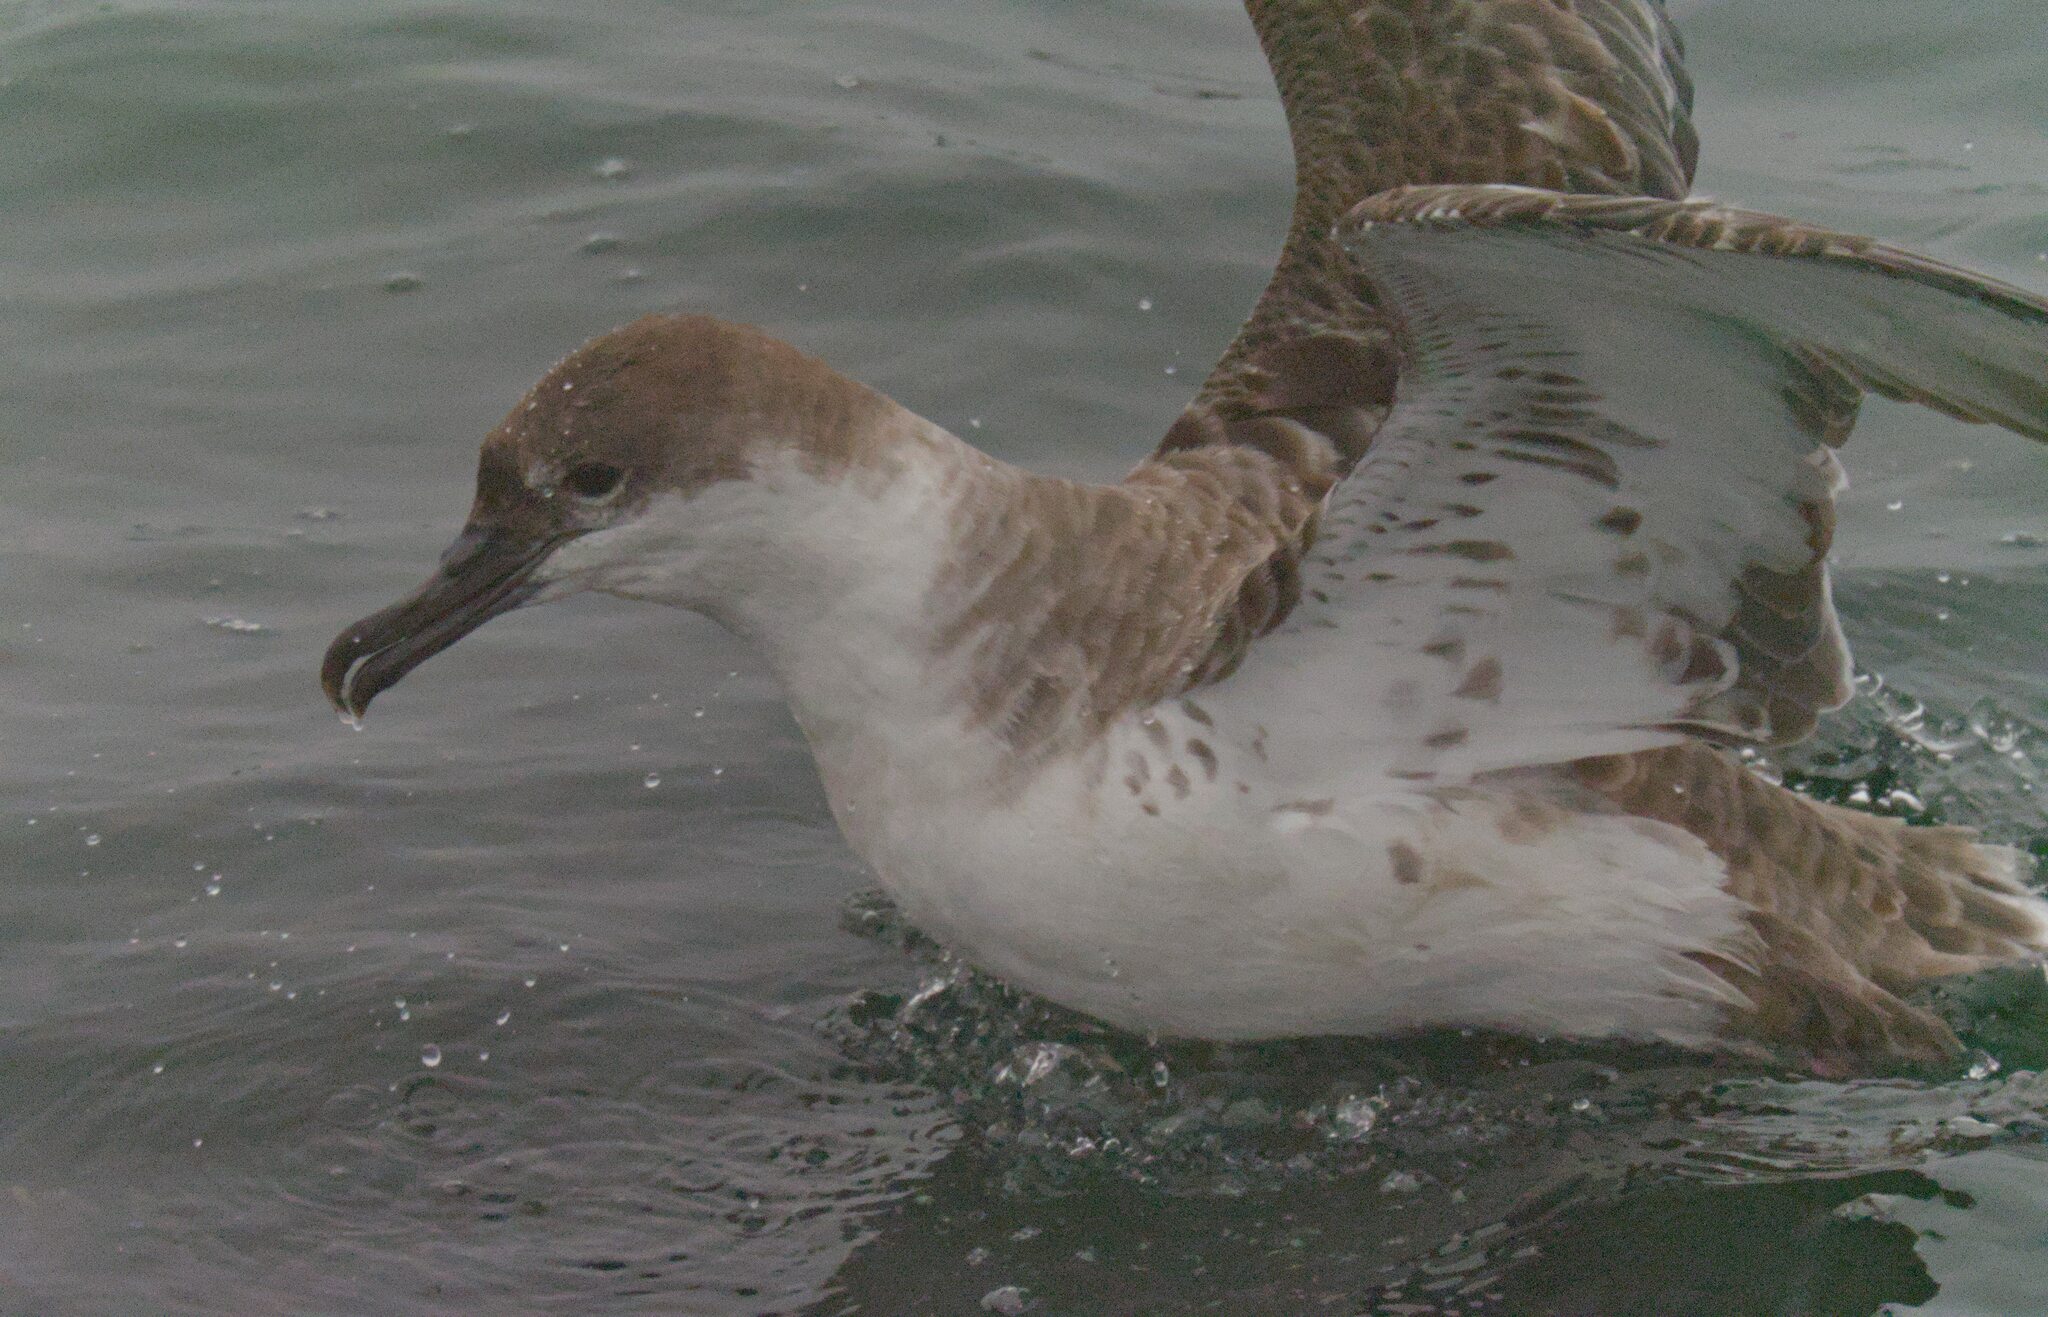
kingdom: Animalia
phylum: Chordata
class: Aves
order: Procellariiformes
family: Procellariidae
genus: Puffinus
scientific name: Puffinus gravis
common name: Great shearwater
